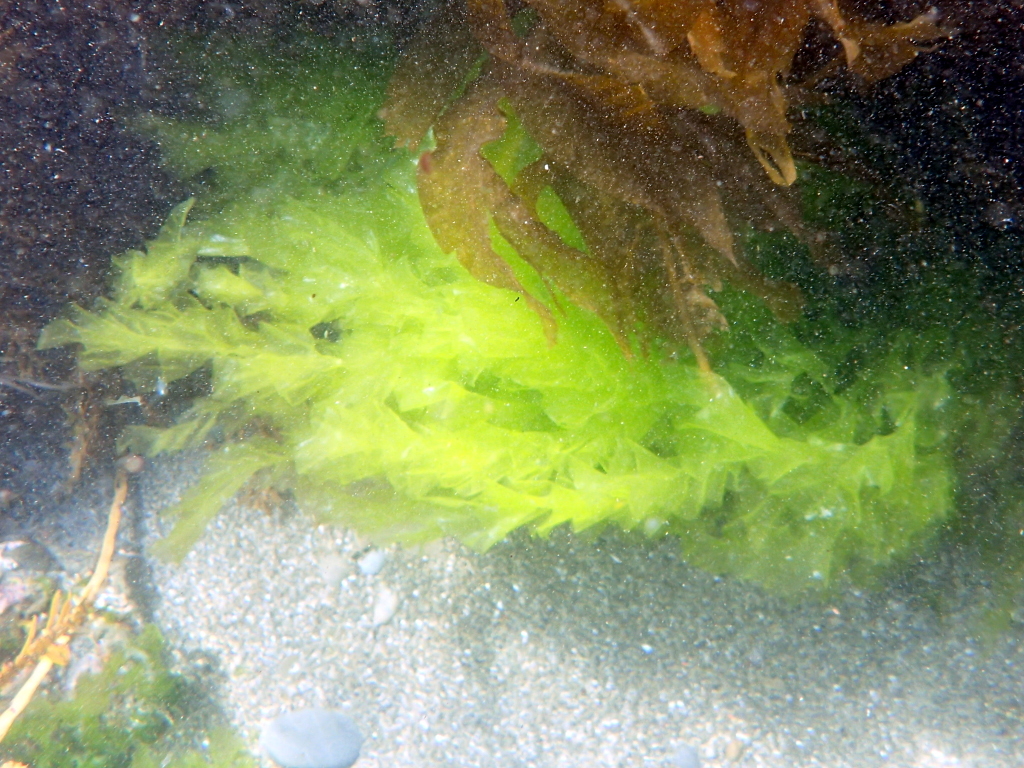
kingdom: Plantae
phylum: Chlorophyta
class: Ulvophyceae
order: Ulvales
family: Ulvaceae
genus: Ulva
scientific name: Ulva
